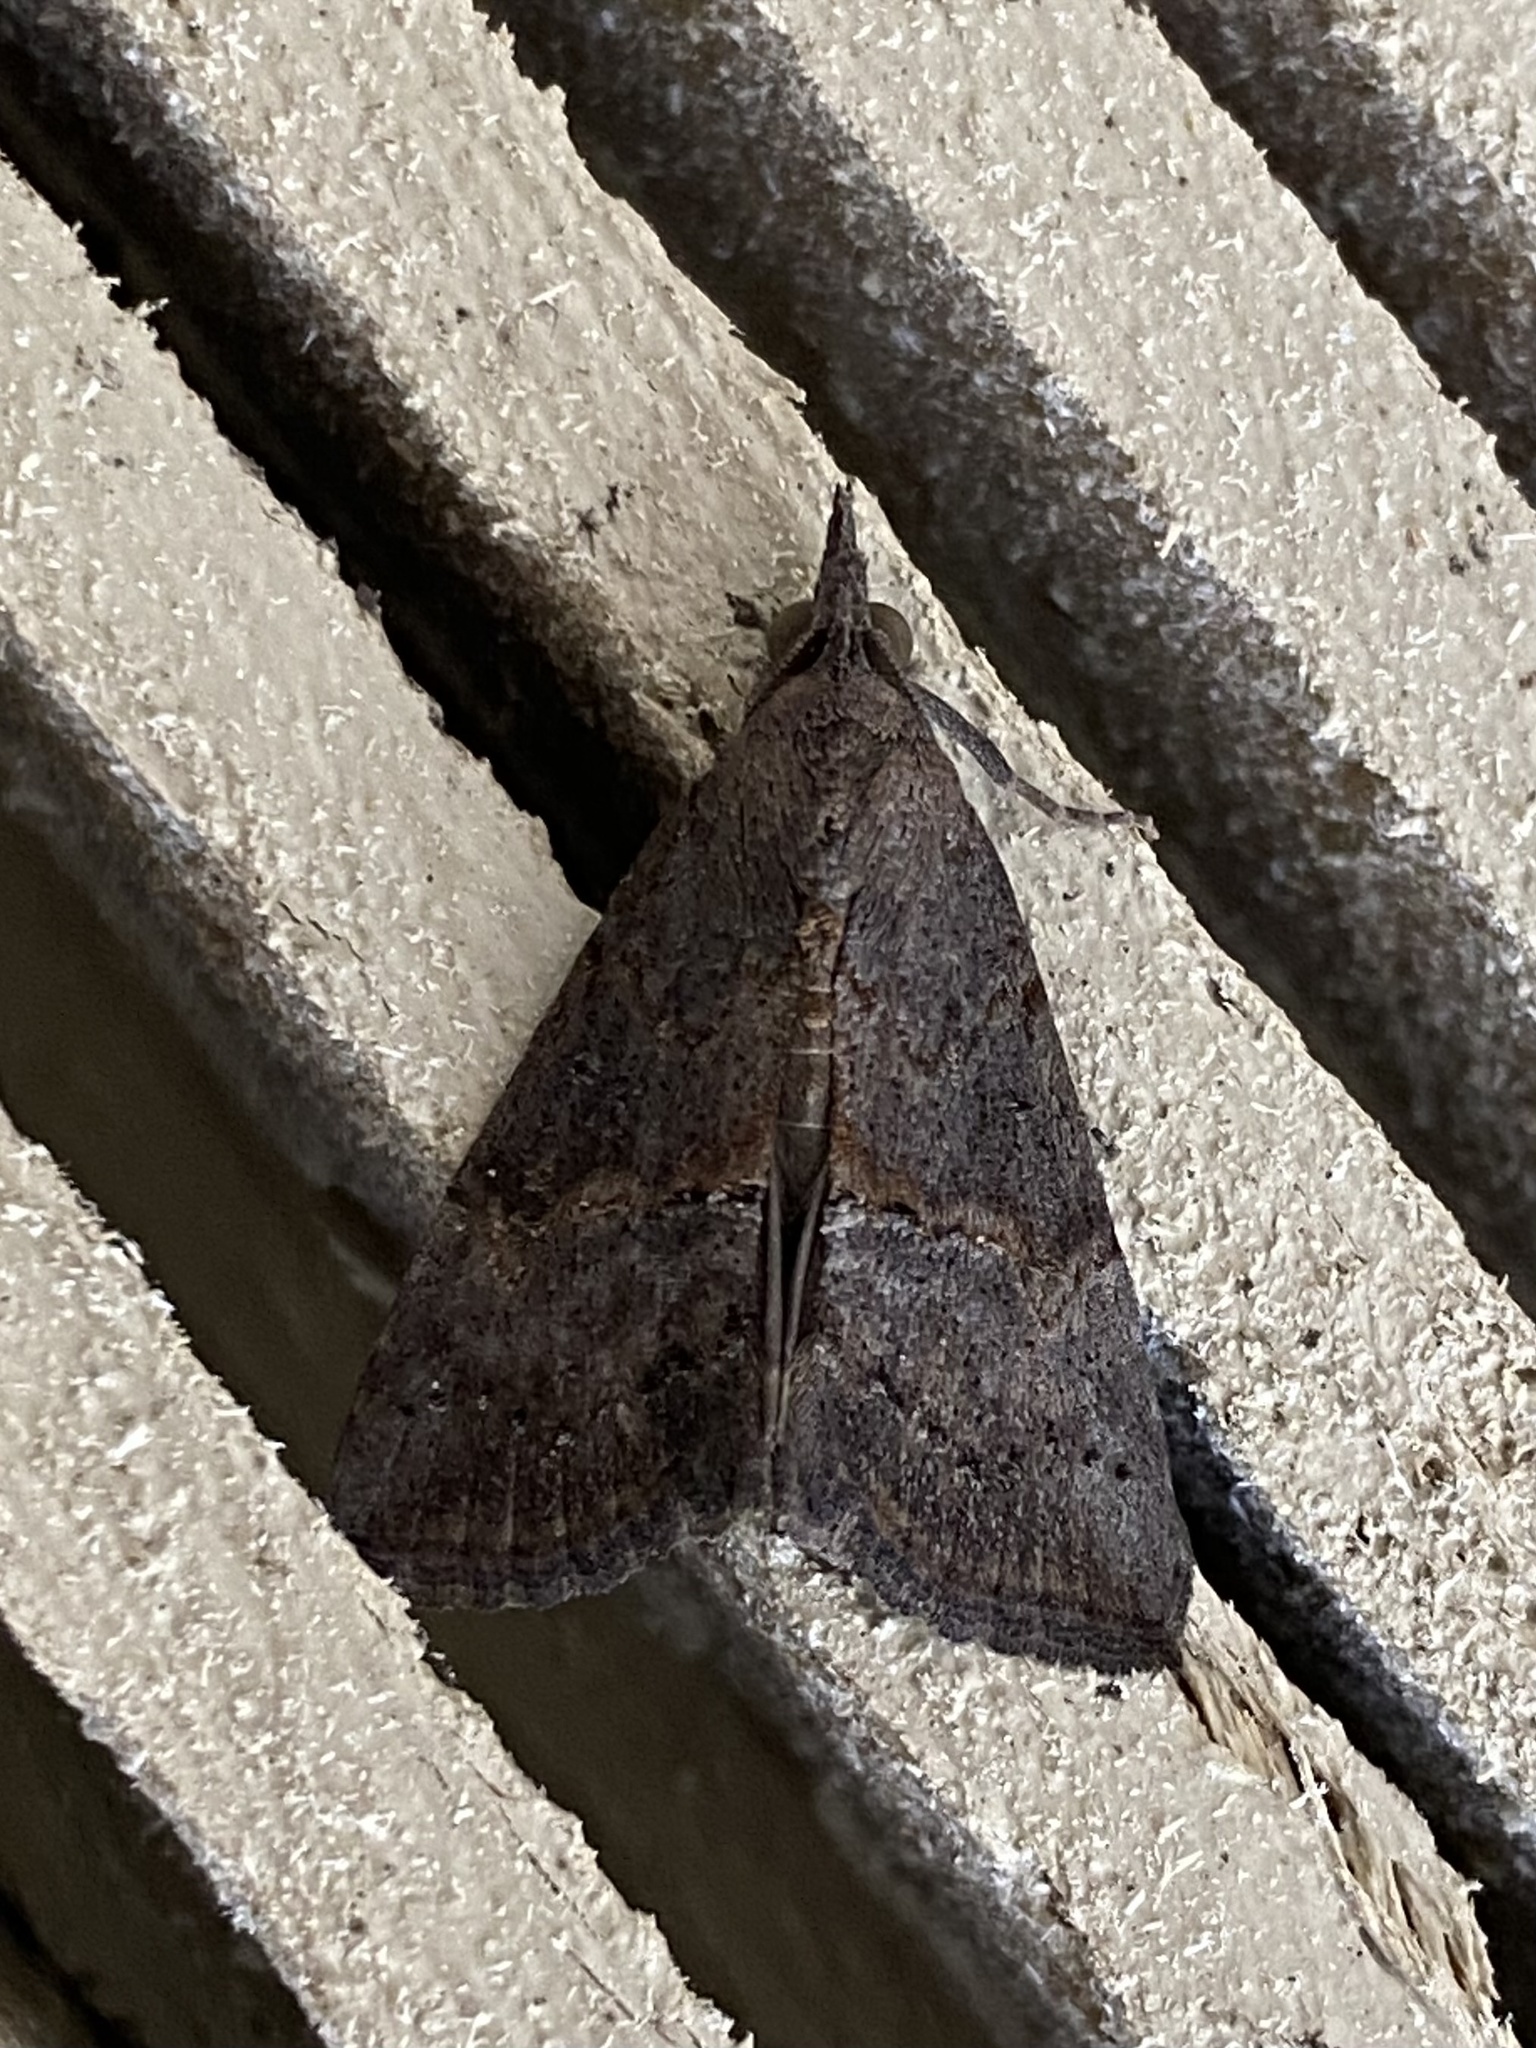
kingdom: Animalia
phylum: Arthropoda
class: Insecta
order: Lepidoptera
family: Erebidae
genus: Hypena
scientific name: Hypena scabra
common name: Green cloverworm
